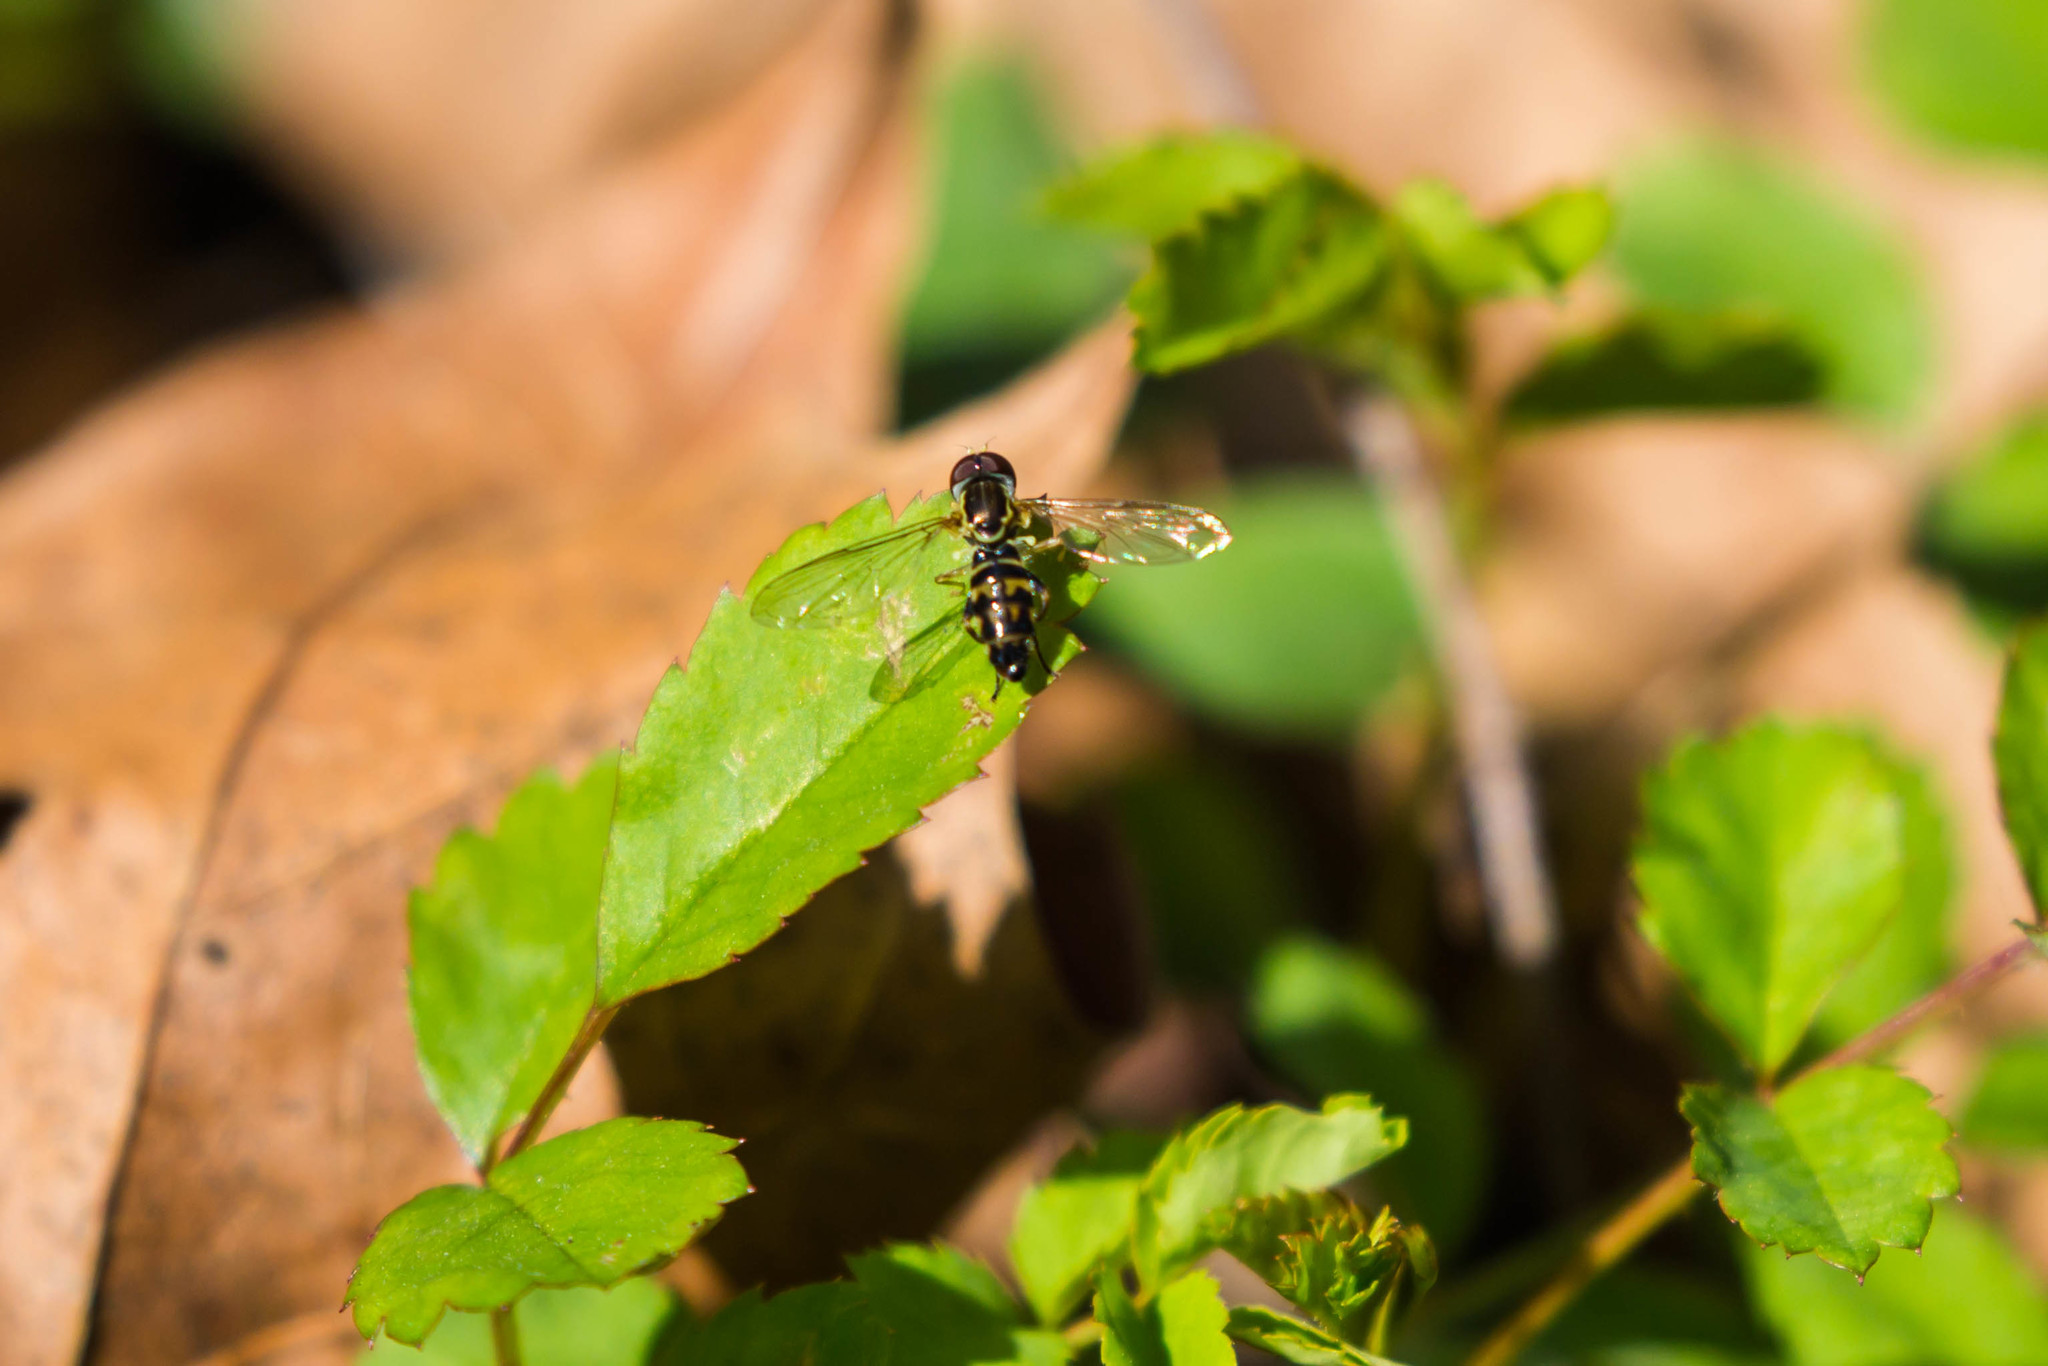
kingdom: Animalia
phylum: Arthropoda
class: Insecta
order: Diptera
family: Syrphidae
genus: Toxomerus
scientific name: Toxomerus geminatus
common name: Eastern calligrapher
